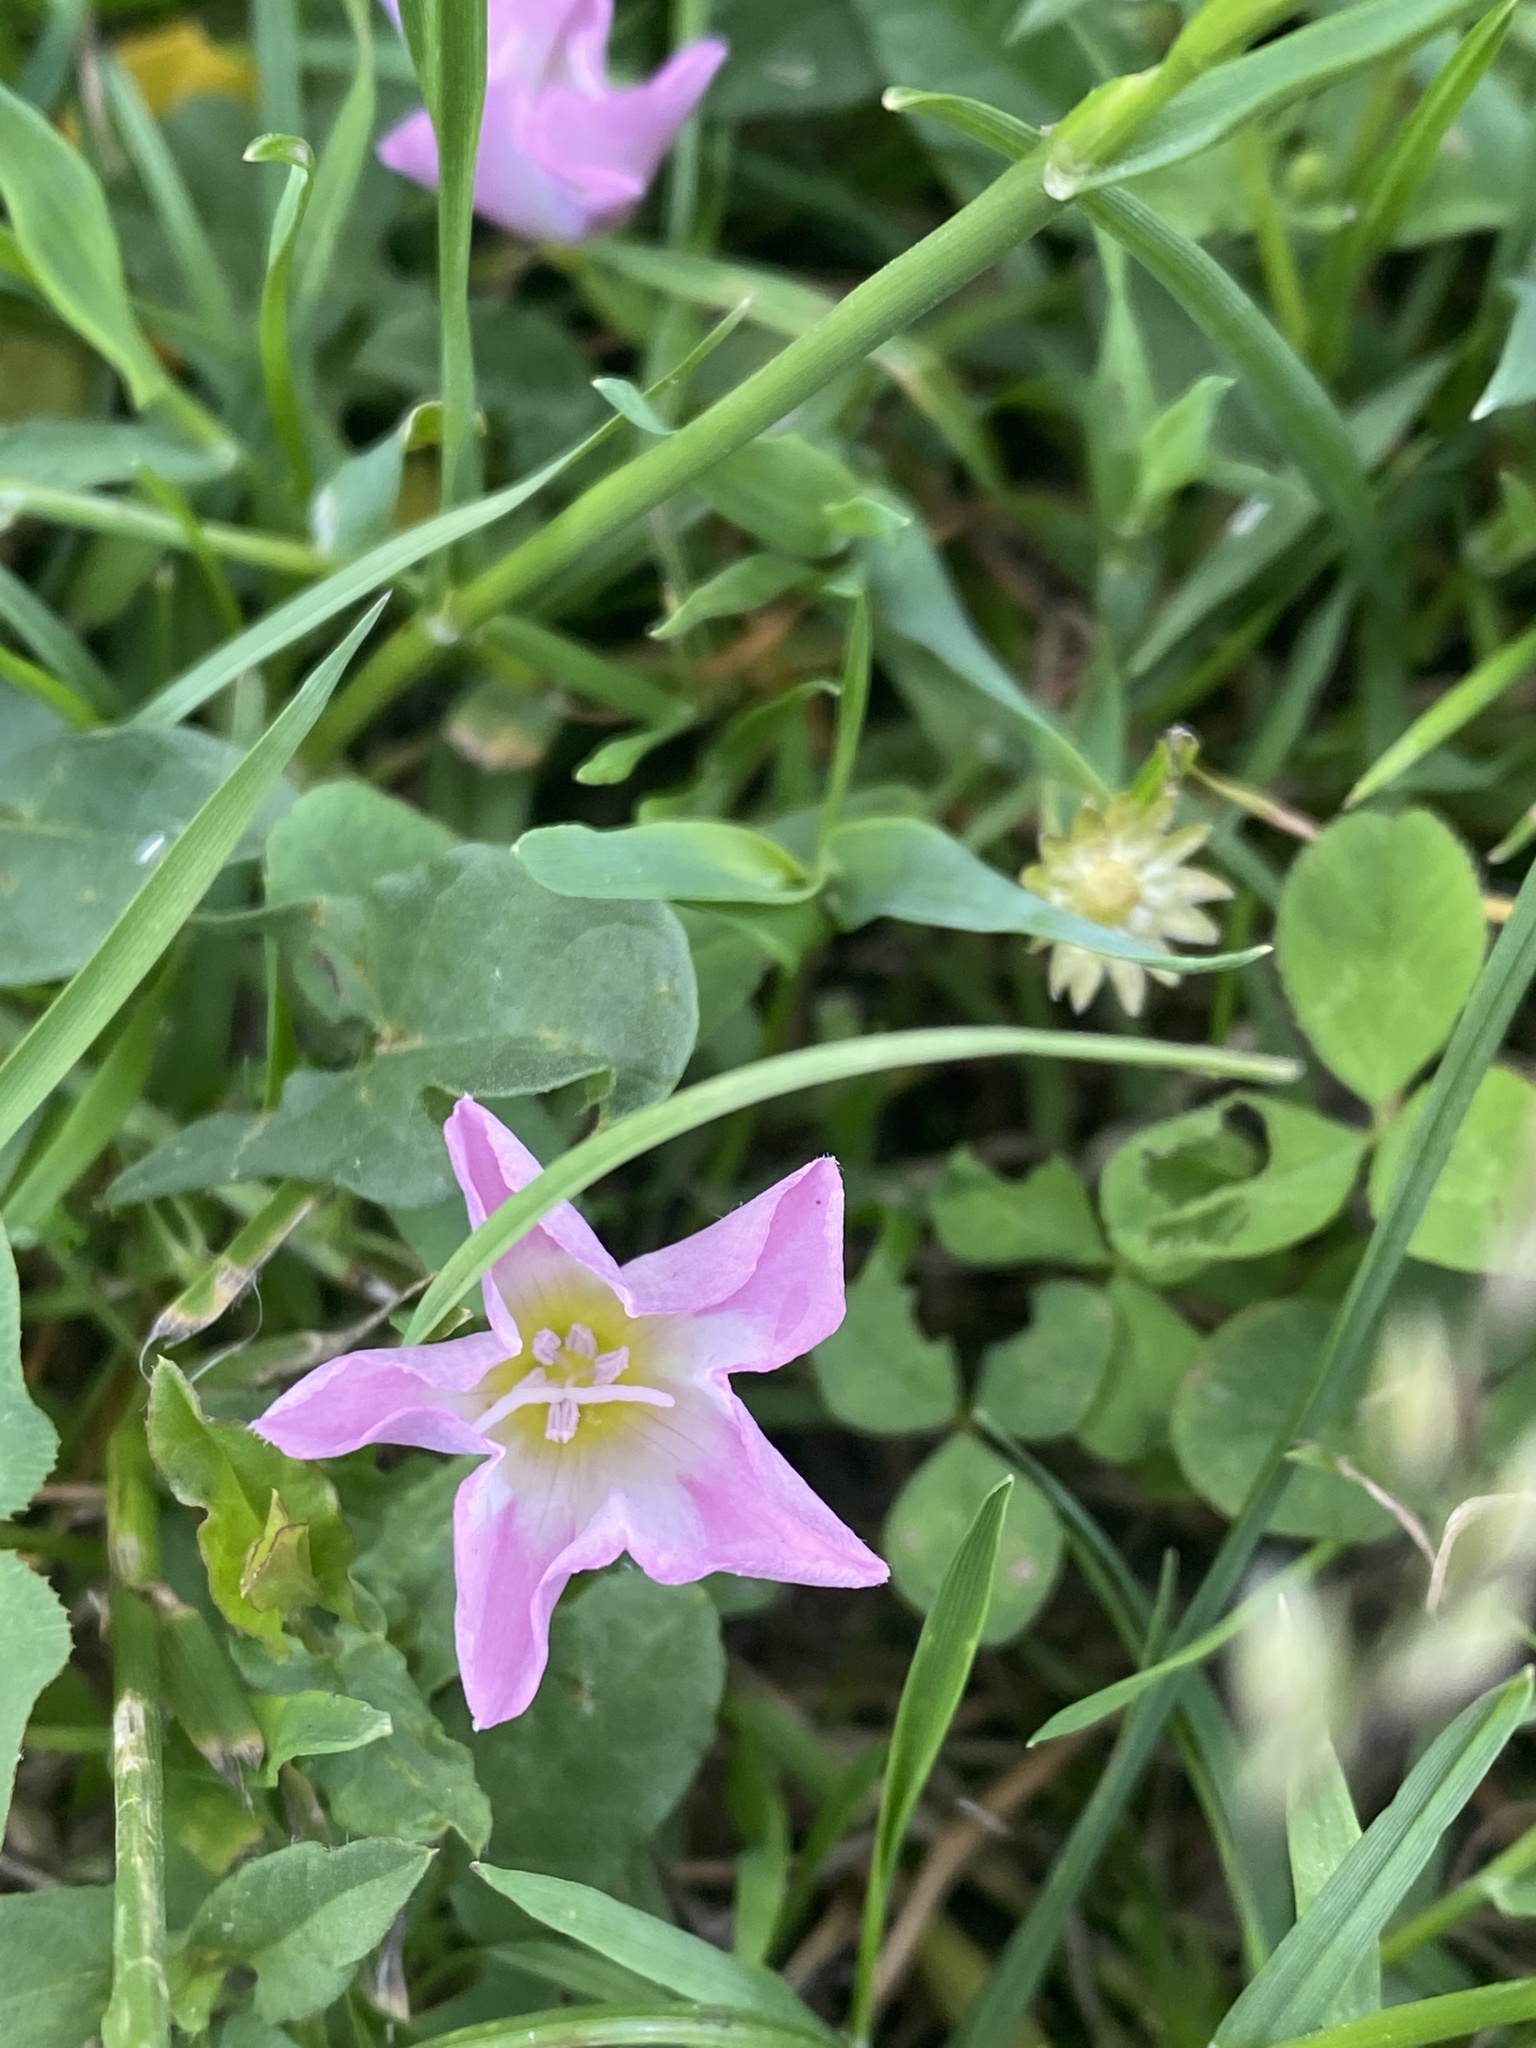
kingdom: Plantae
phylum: Tracheophyta
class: Magnoliopsida
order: Solanales
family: Convolvulaceae
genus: Convolvulus
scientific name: Convolvulus arvensis
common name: Field bindweed
